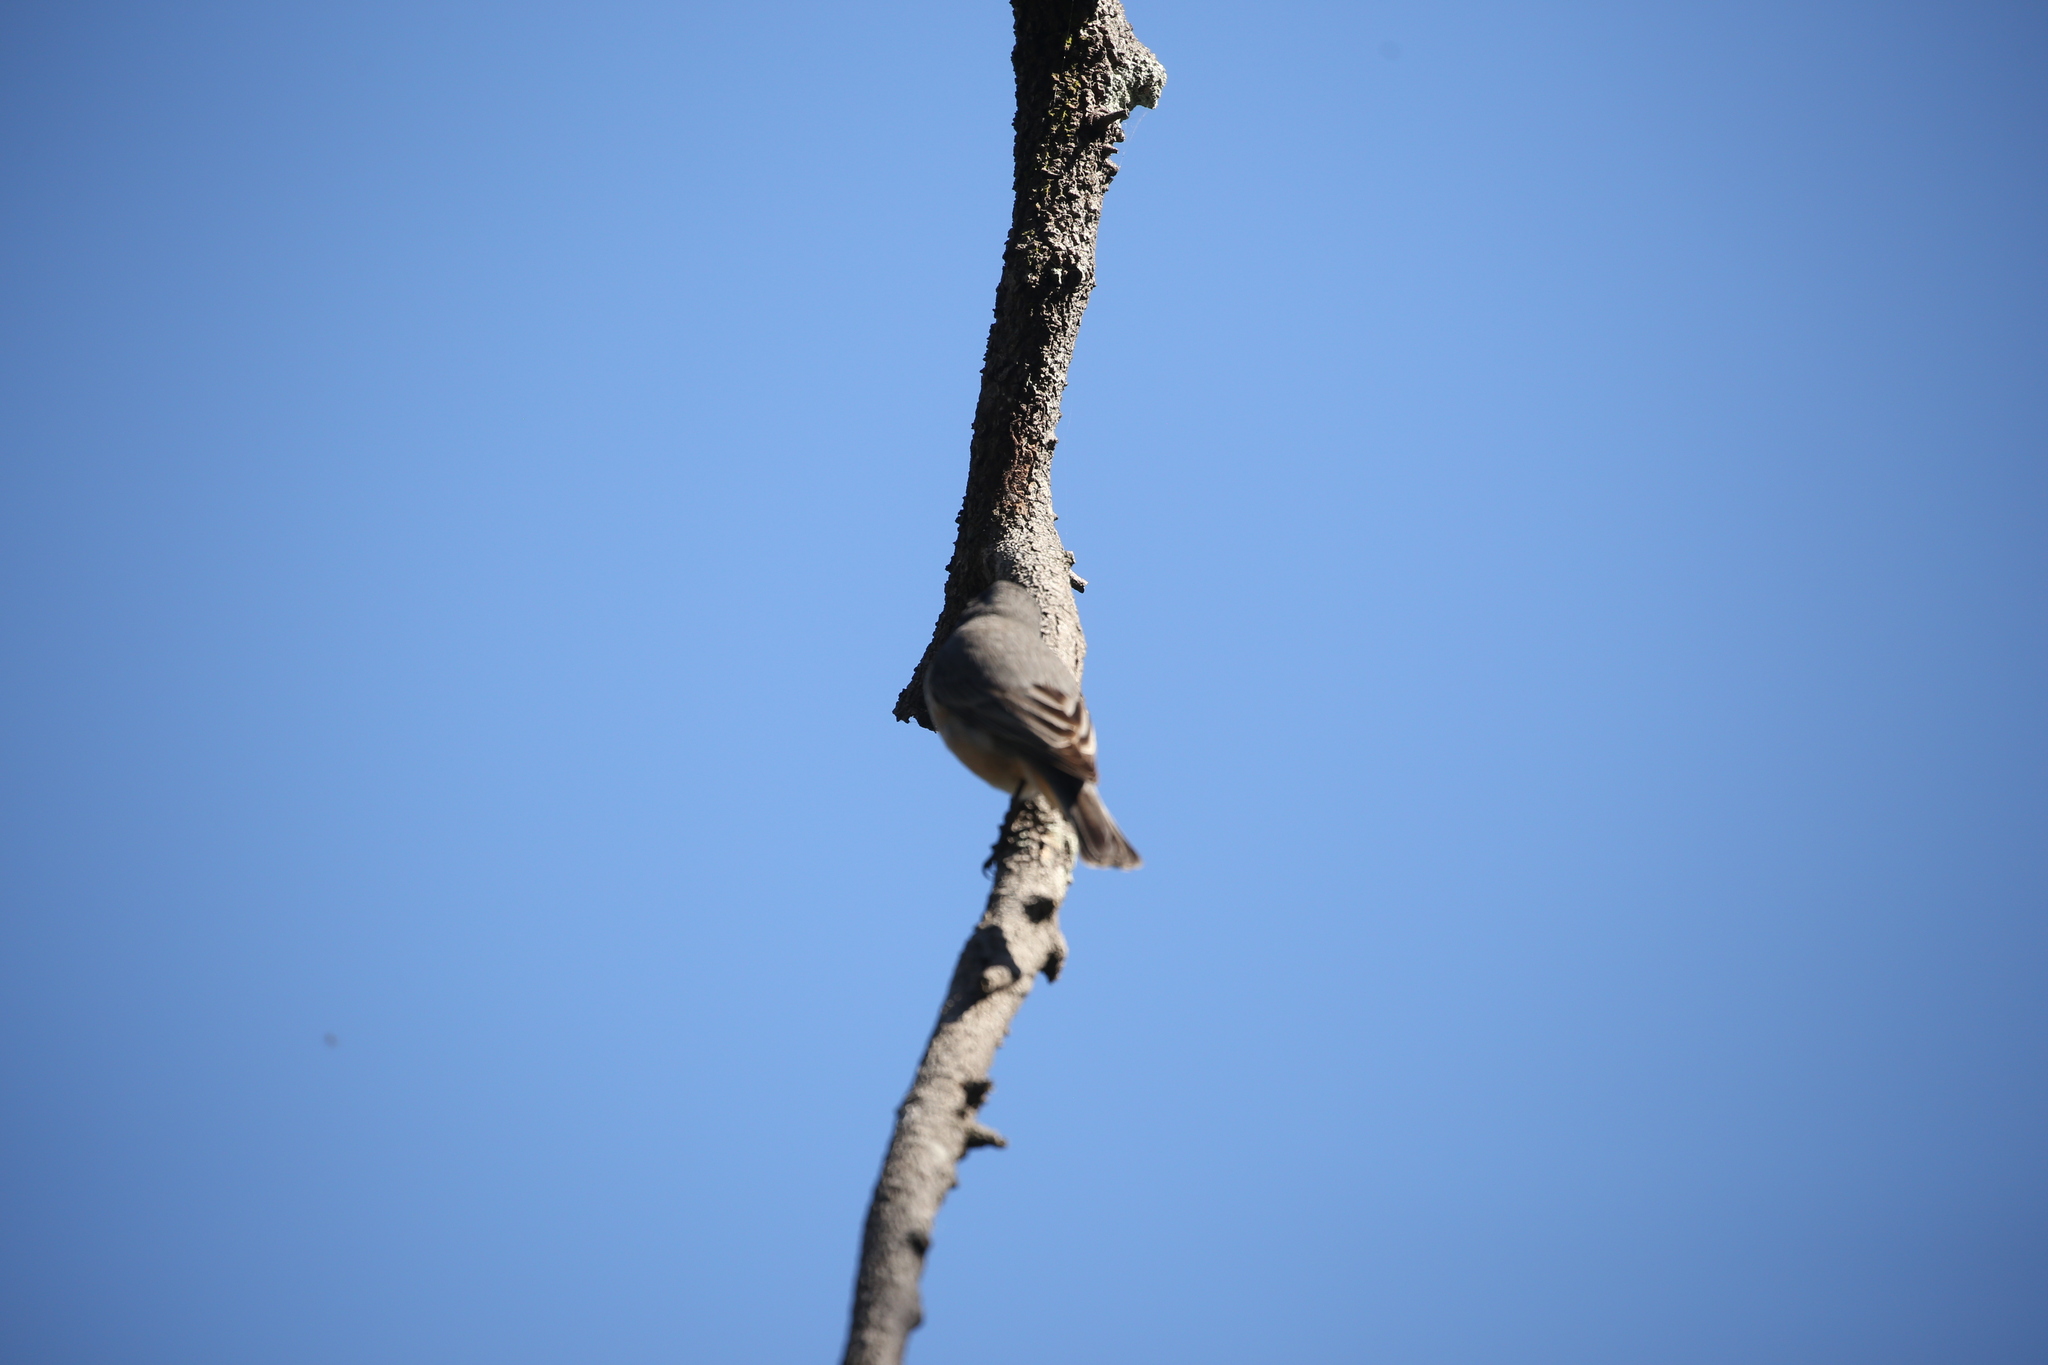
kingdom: Animalia
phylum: Chordata
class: Aves
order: Passeriformes
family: Pachycephalidae
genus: Pachycephala
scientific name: Pachycephala rufiventris
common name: Rufous whistler
